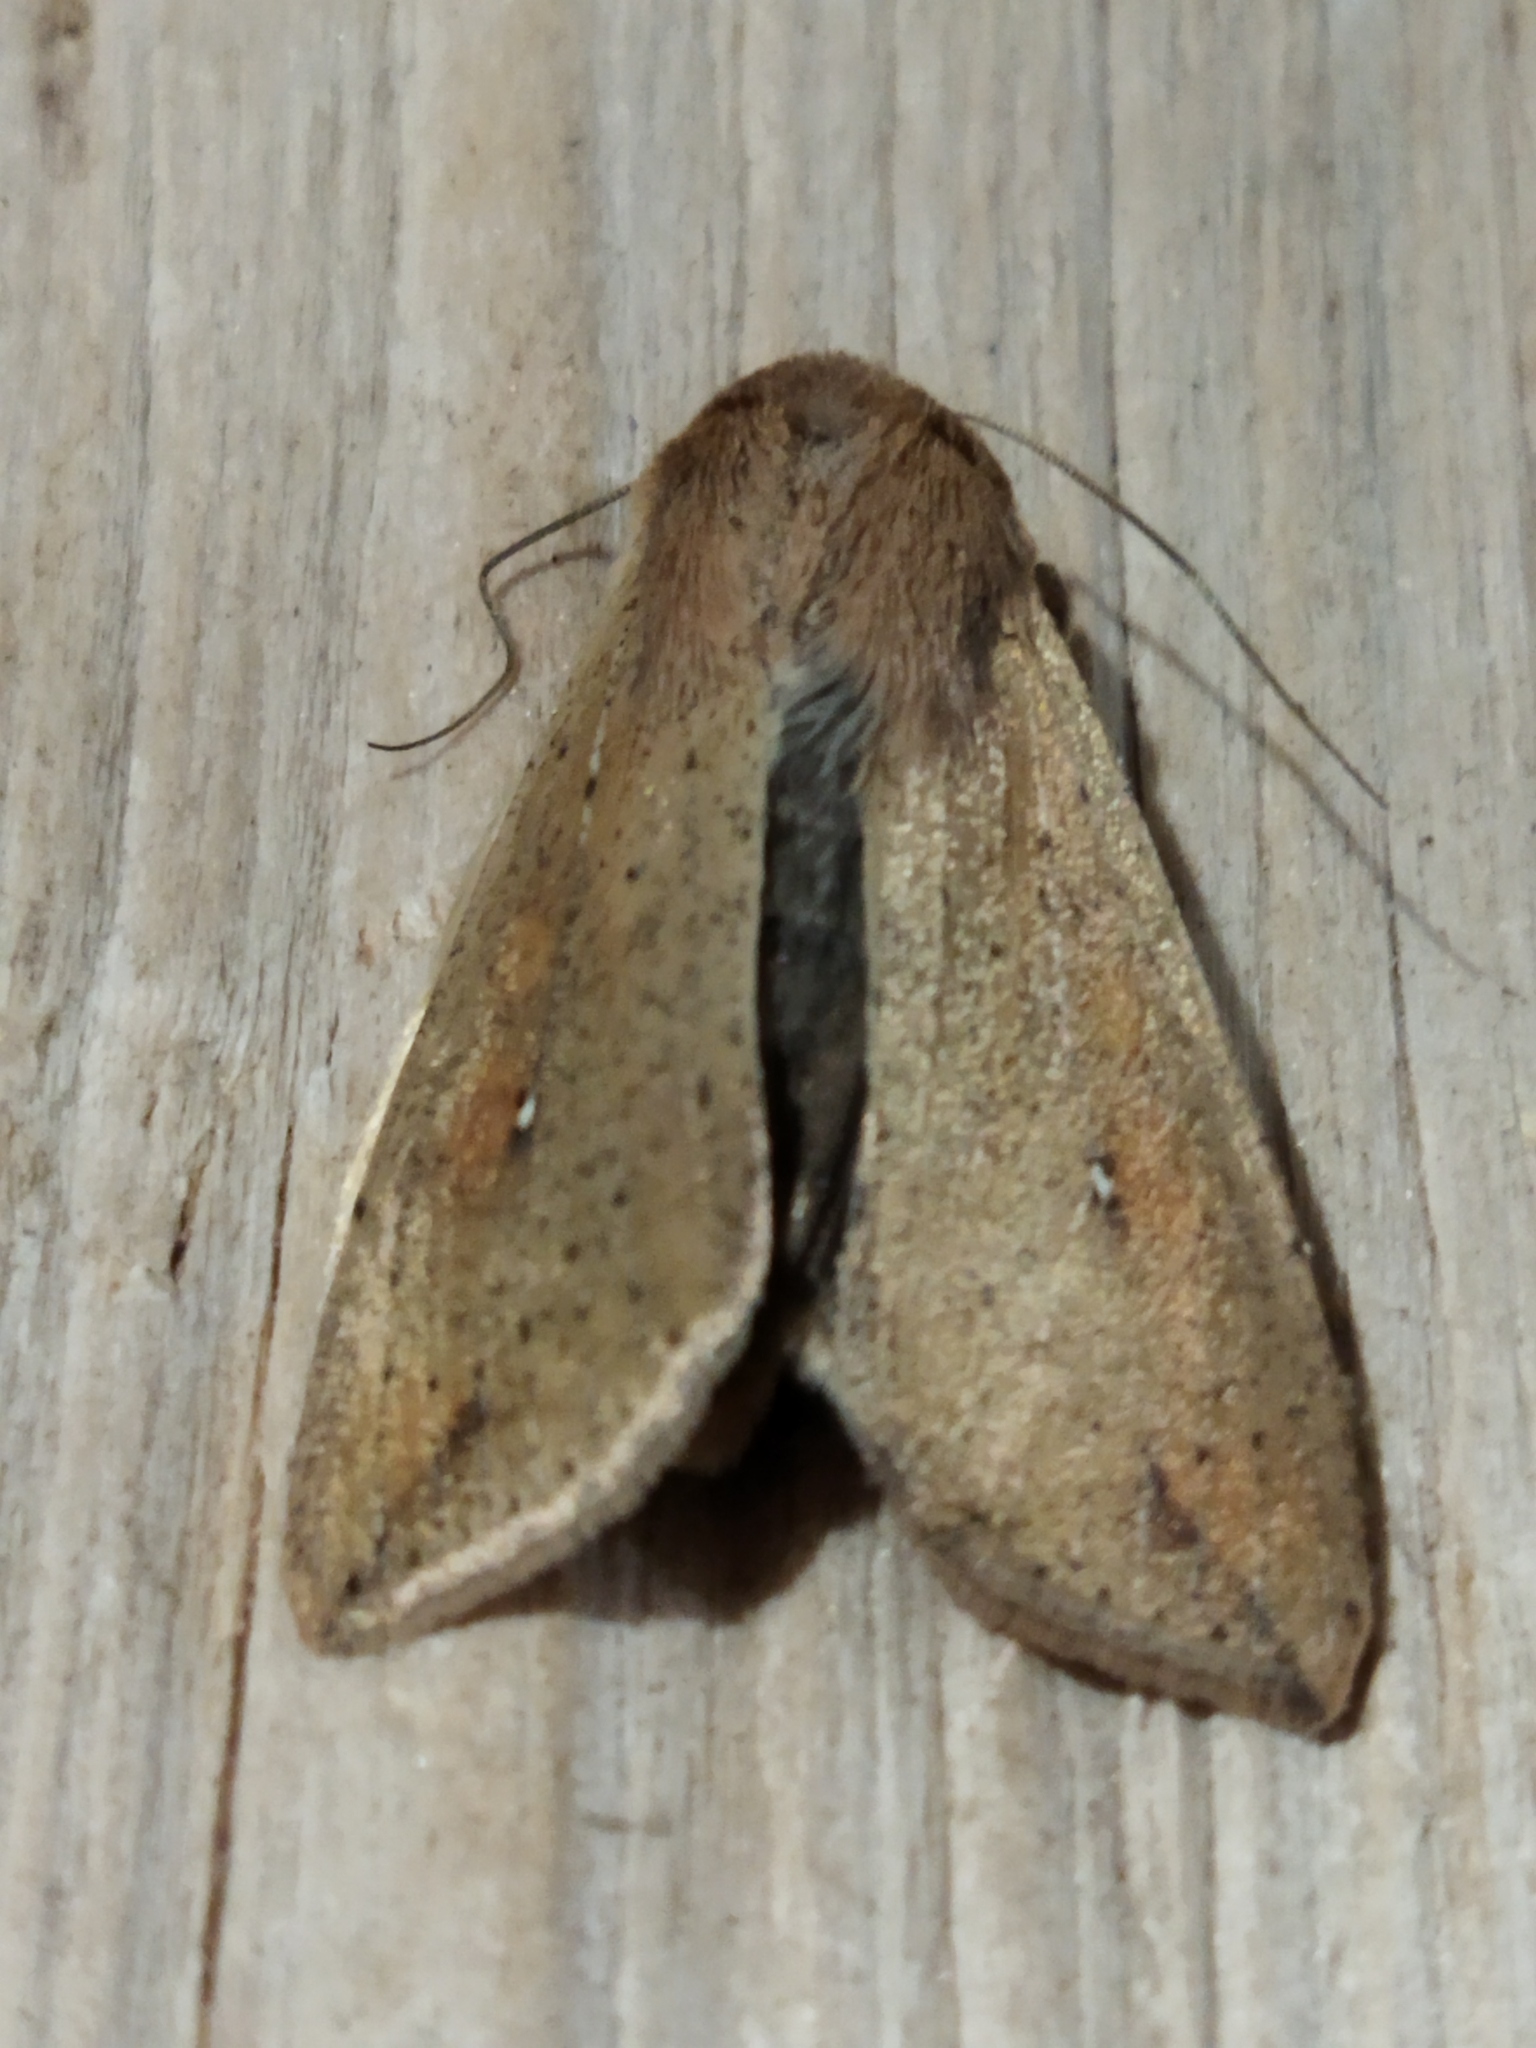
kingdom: Animalia
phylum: Arthropoda
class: Insecta
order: Lepidoptera
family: Noctuidae
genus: Mythimna
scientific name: Mythimna unipuncta
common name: White-speck
